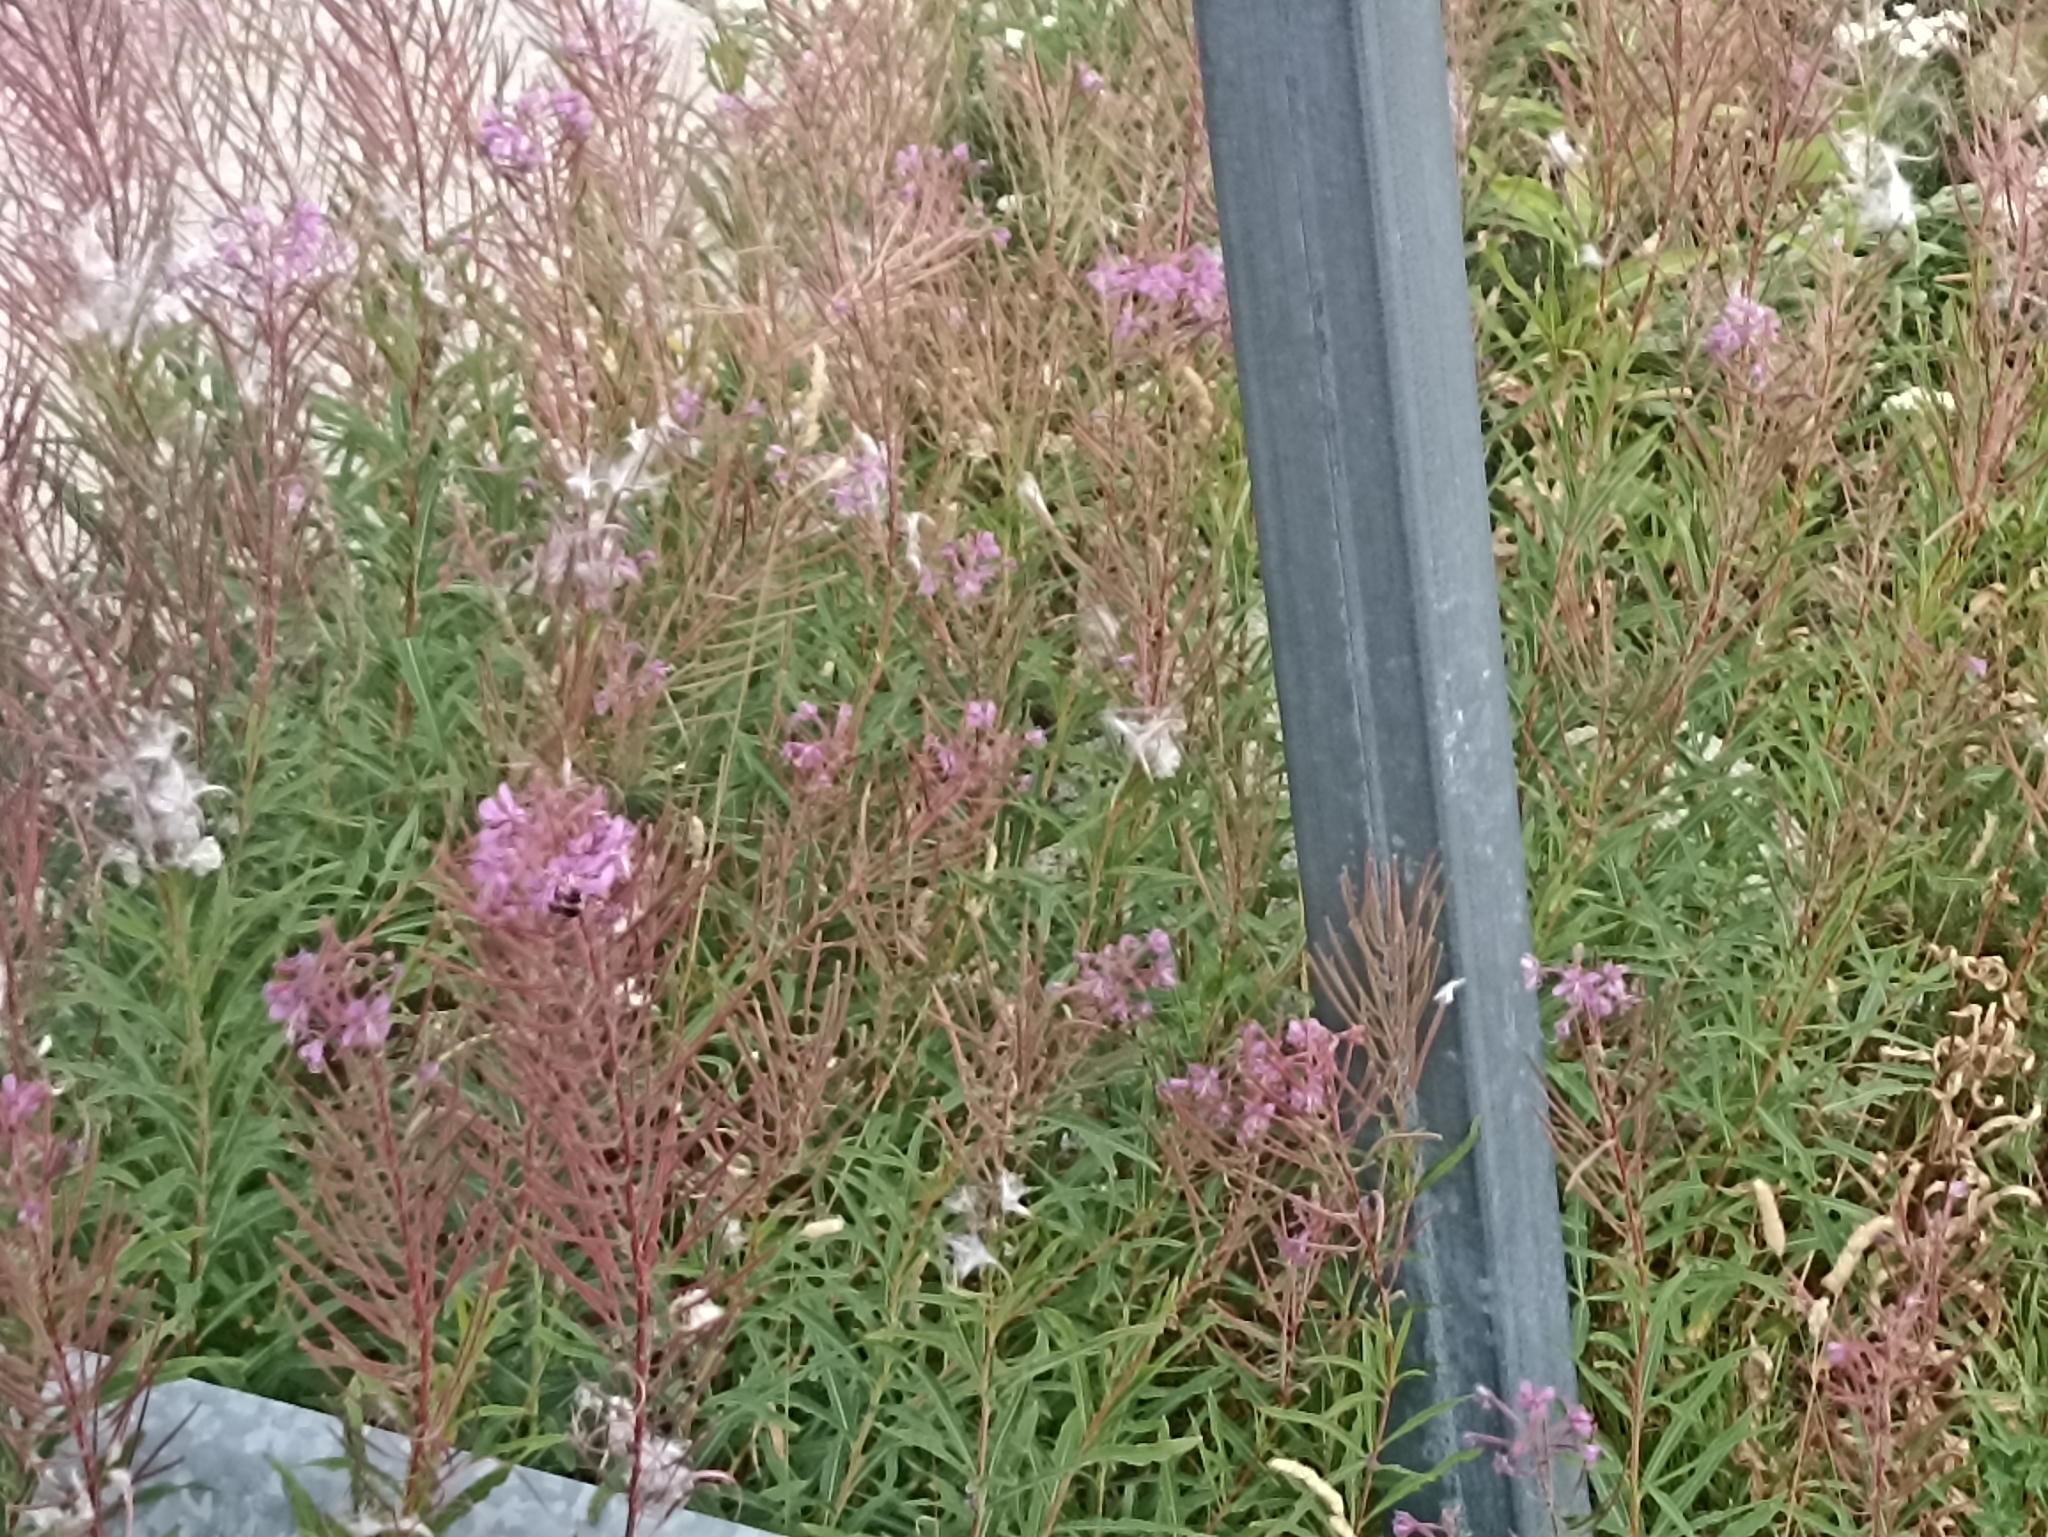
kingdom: Plantae
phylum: Tracheophyta
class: Magnoliopsida
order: Myrtales
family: Onagraceae
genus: Chamaenerion
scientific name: Chamaenerion angustifolium
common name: Fireweed
